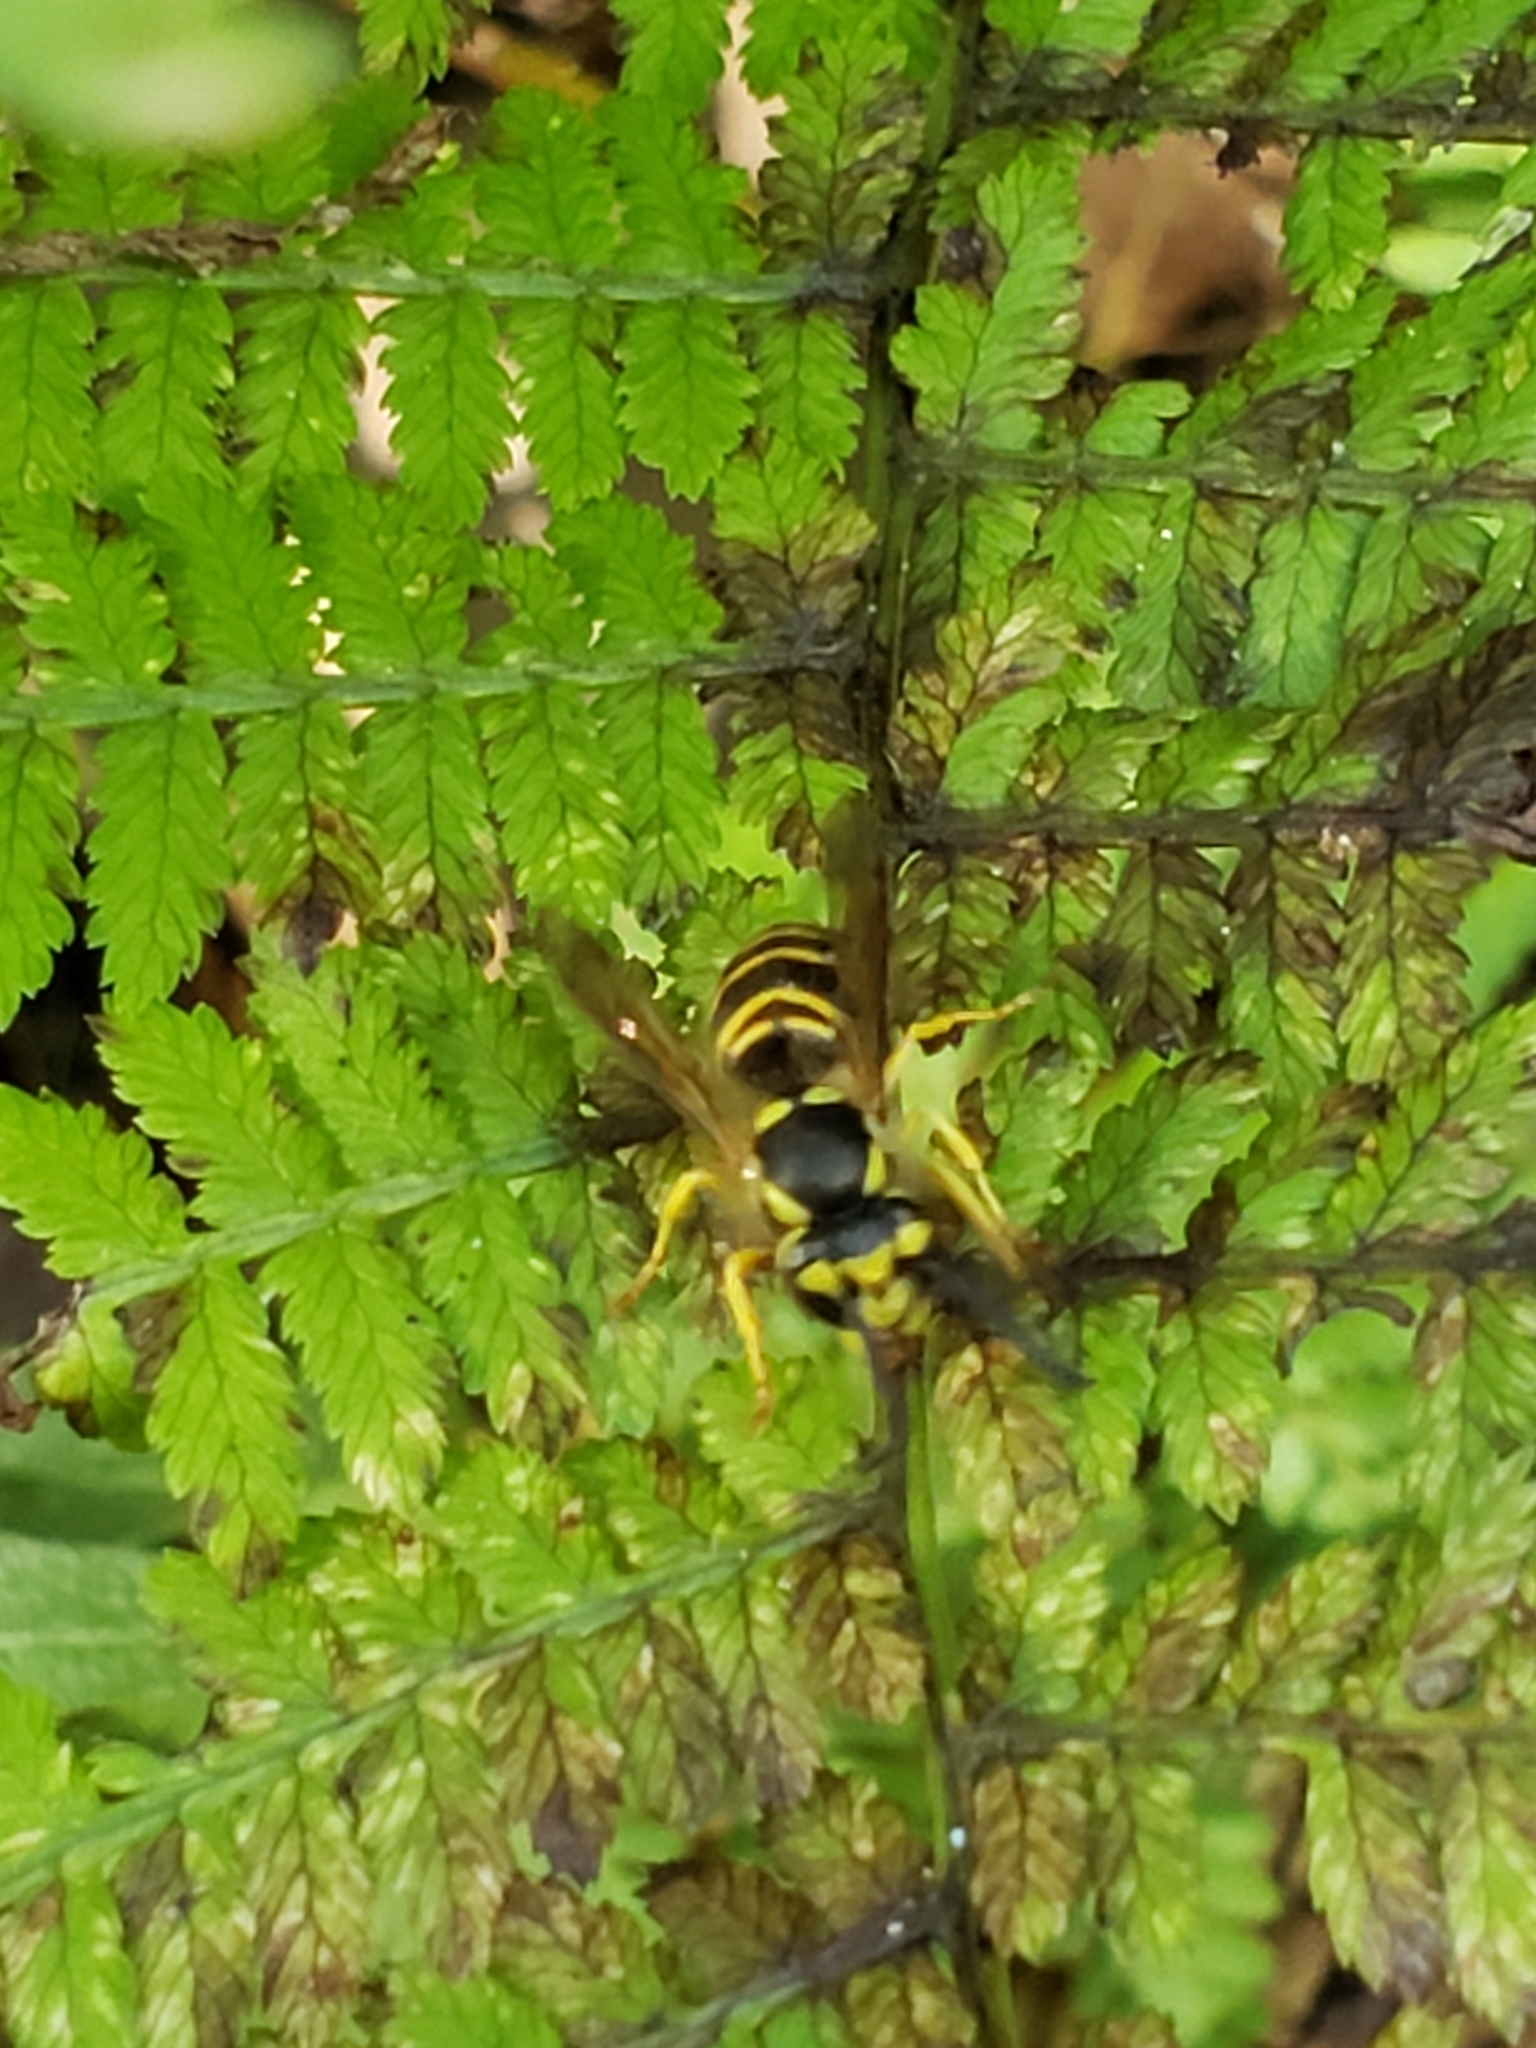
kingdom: Animalia
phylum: Arthropoda
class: Insecta
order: Hymenoptera
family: Vespidae
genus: Vespula
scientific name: Vespula maculifrons
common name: Eastern yellowjacket
